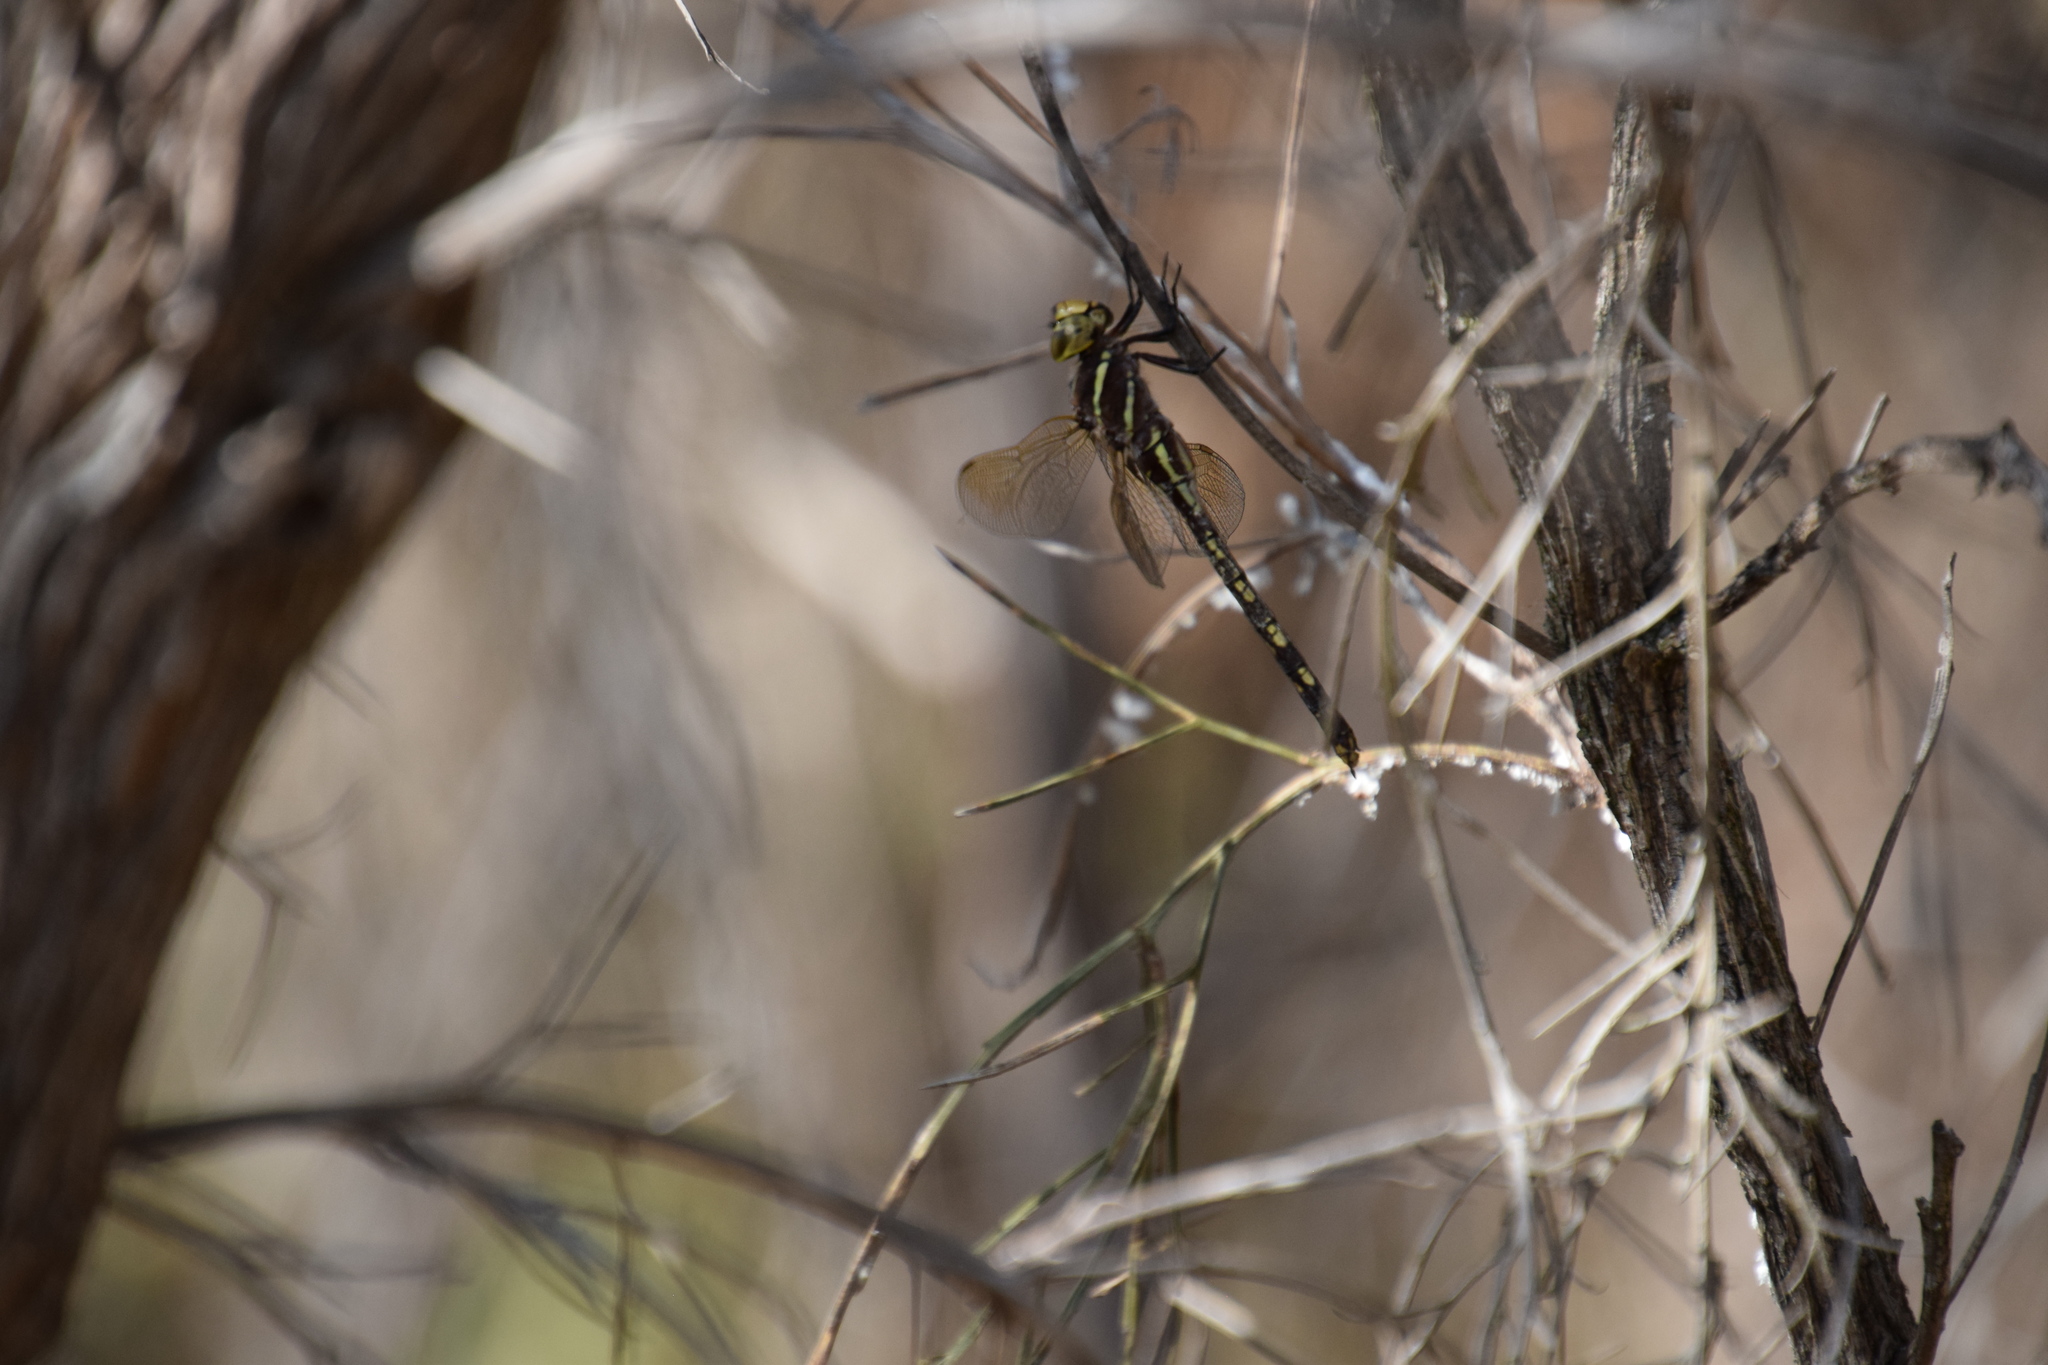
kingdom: Animalia
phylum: Arthropoda
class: Insecta
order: Odonata
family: Aeshnidae
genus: Aeshna
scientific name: Aeshna brevistyla
